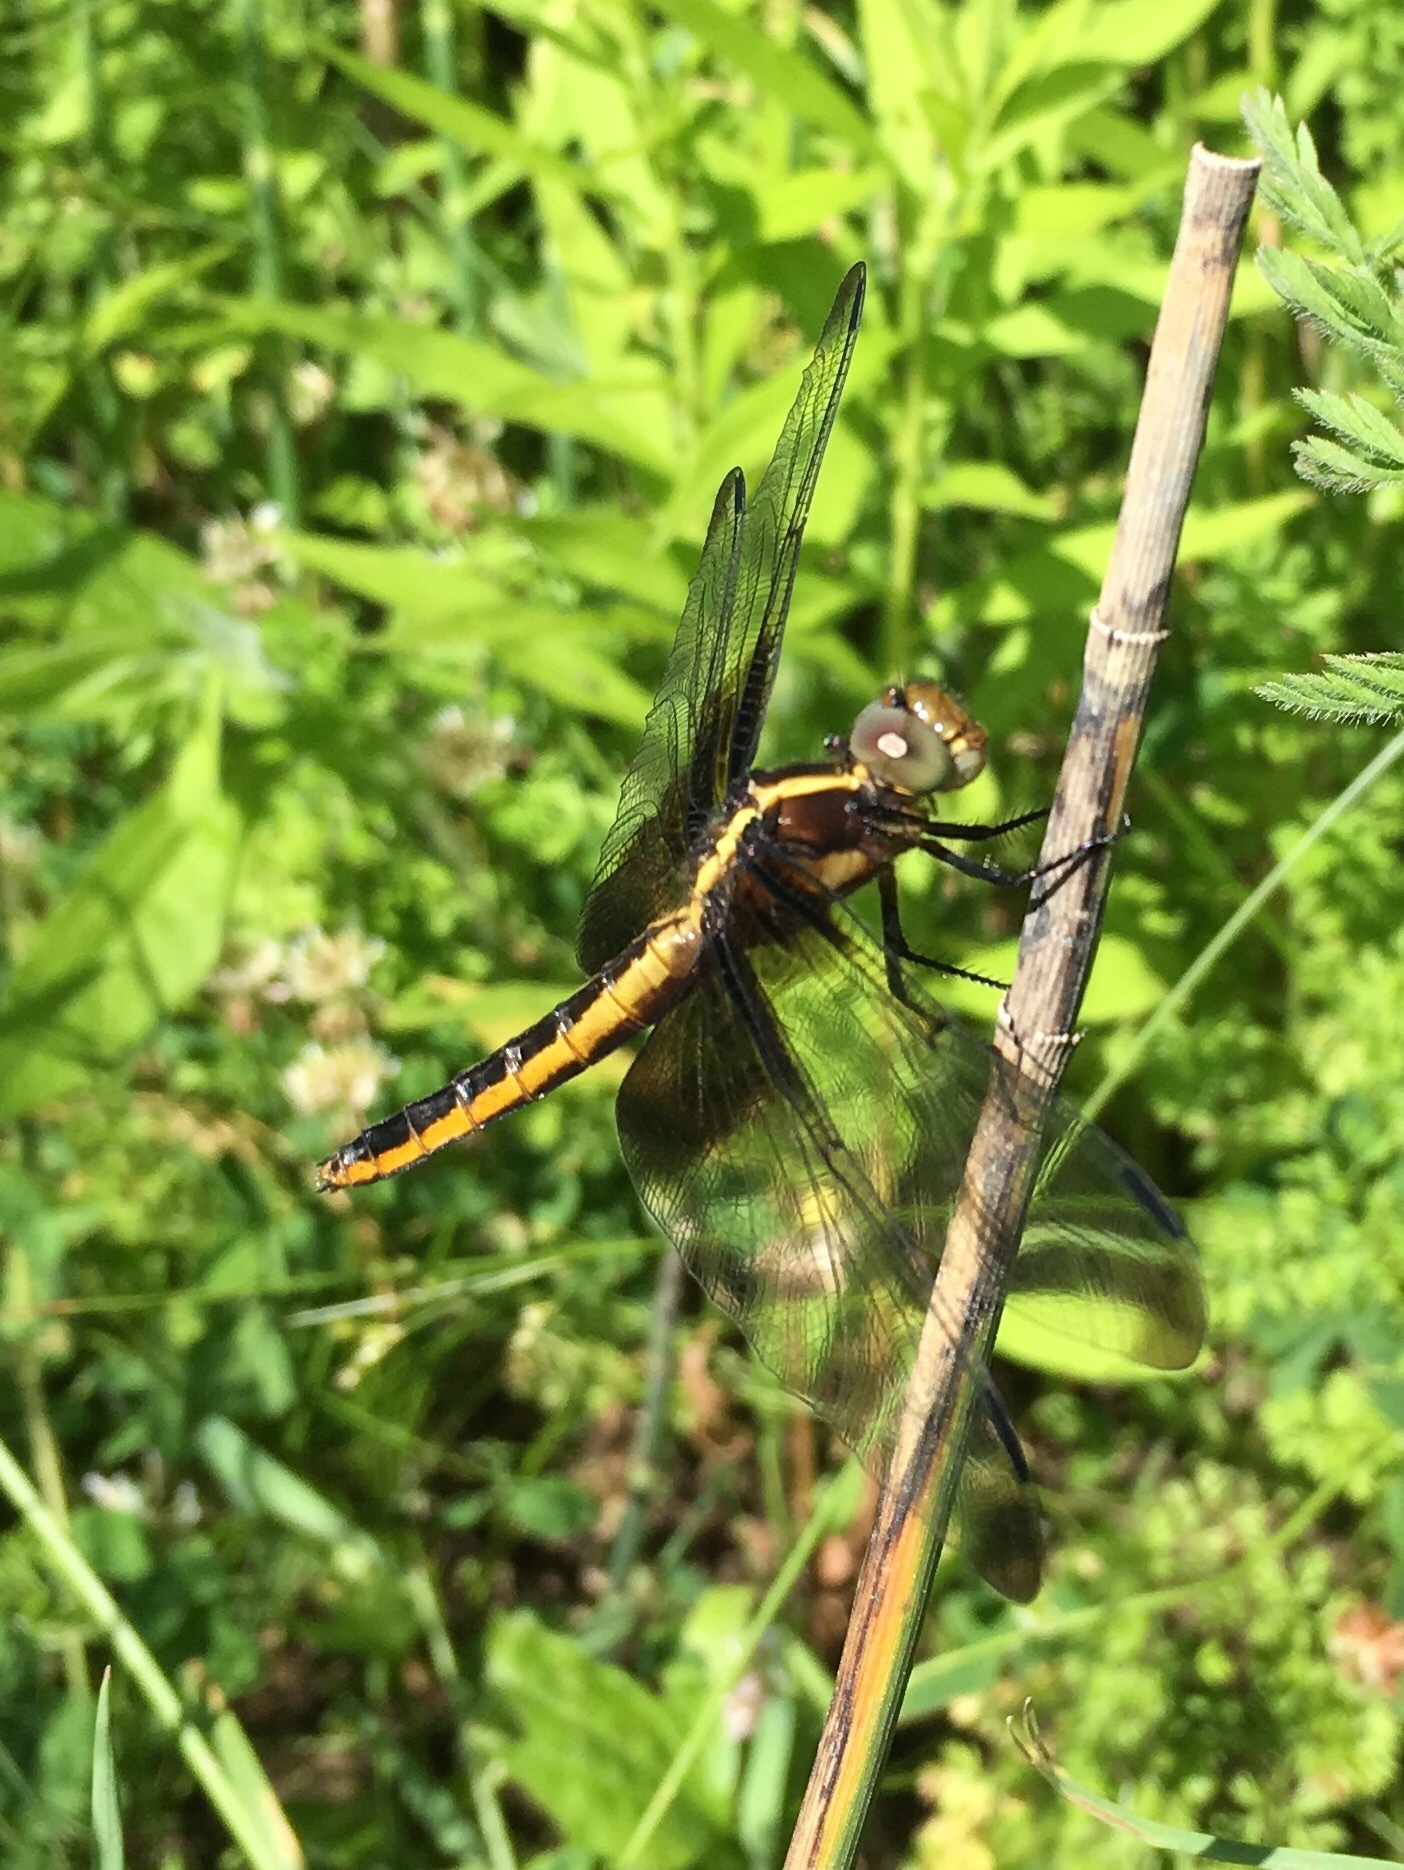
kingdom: Animalia
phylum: Arthropoda
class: Insecta
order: Odonata
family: Libellulidae
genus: Libellula
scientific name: Libellula luctuosa
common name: Widow skimmer
